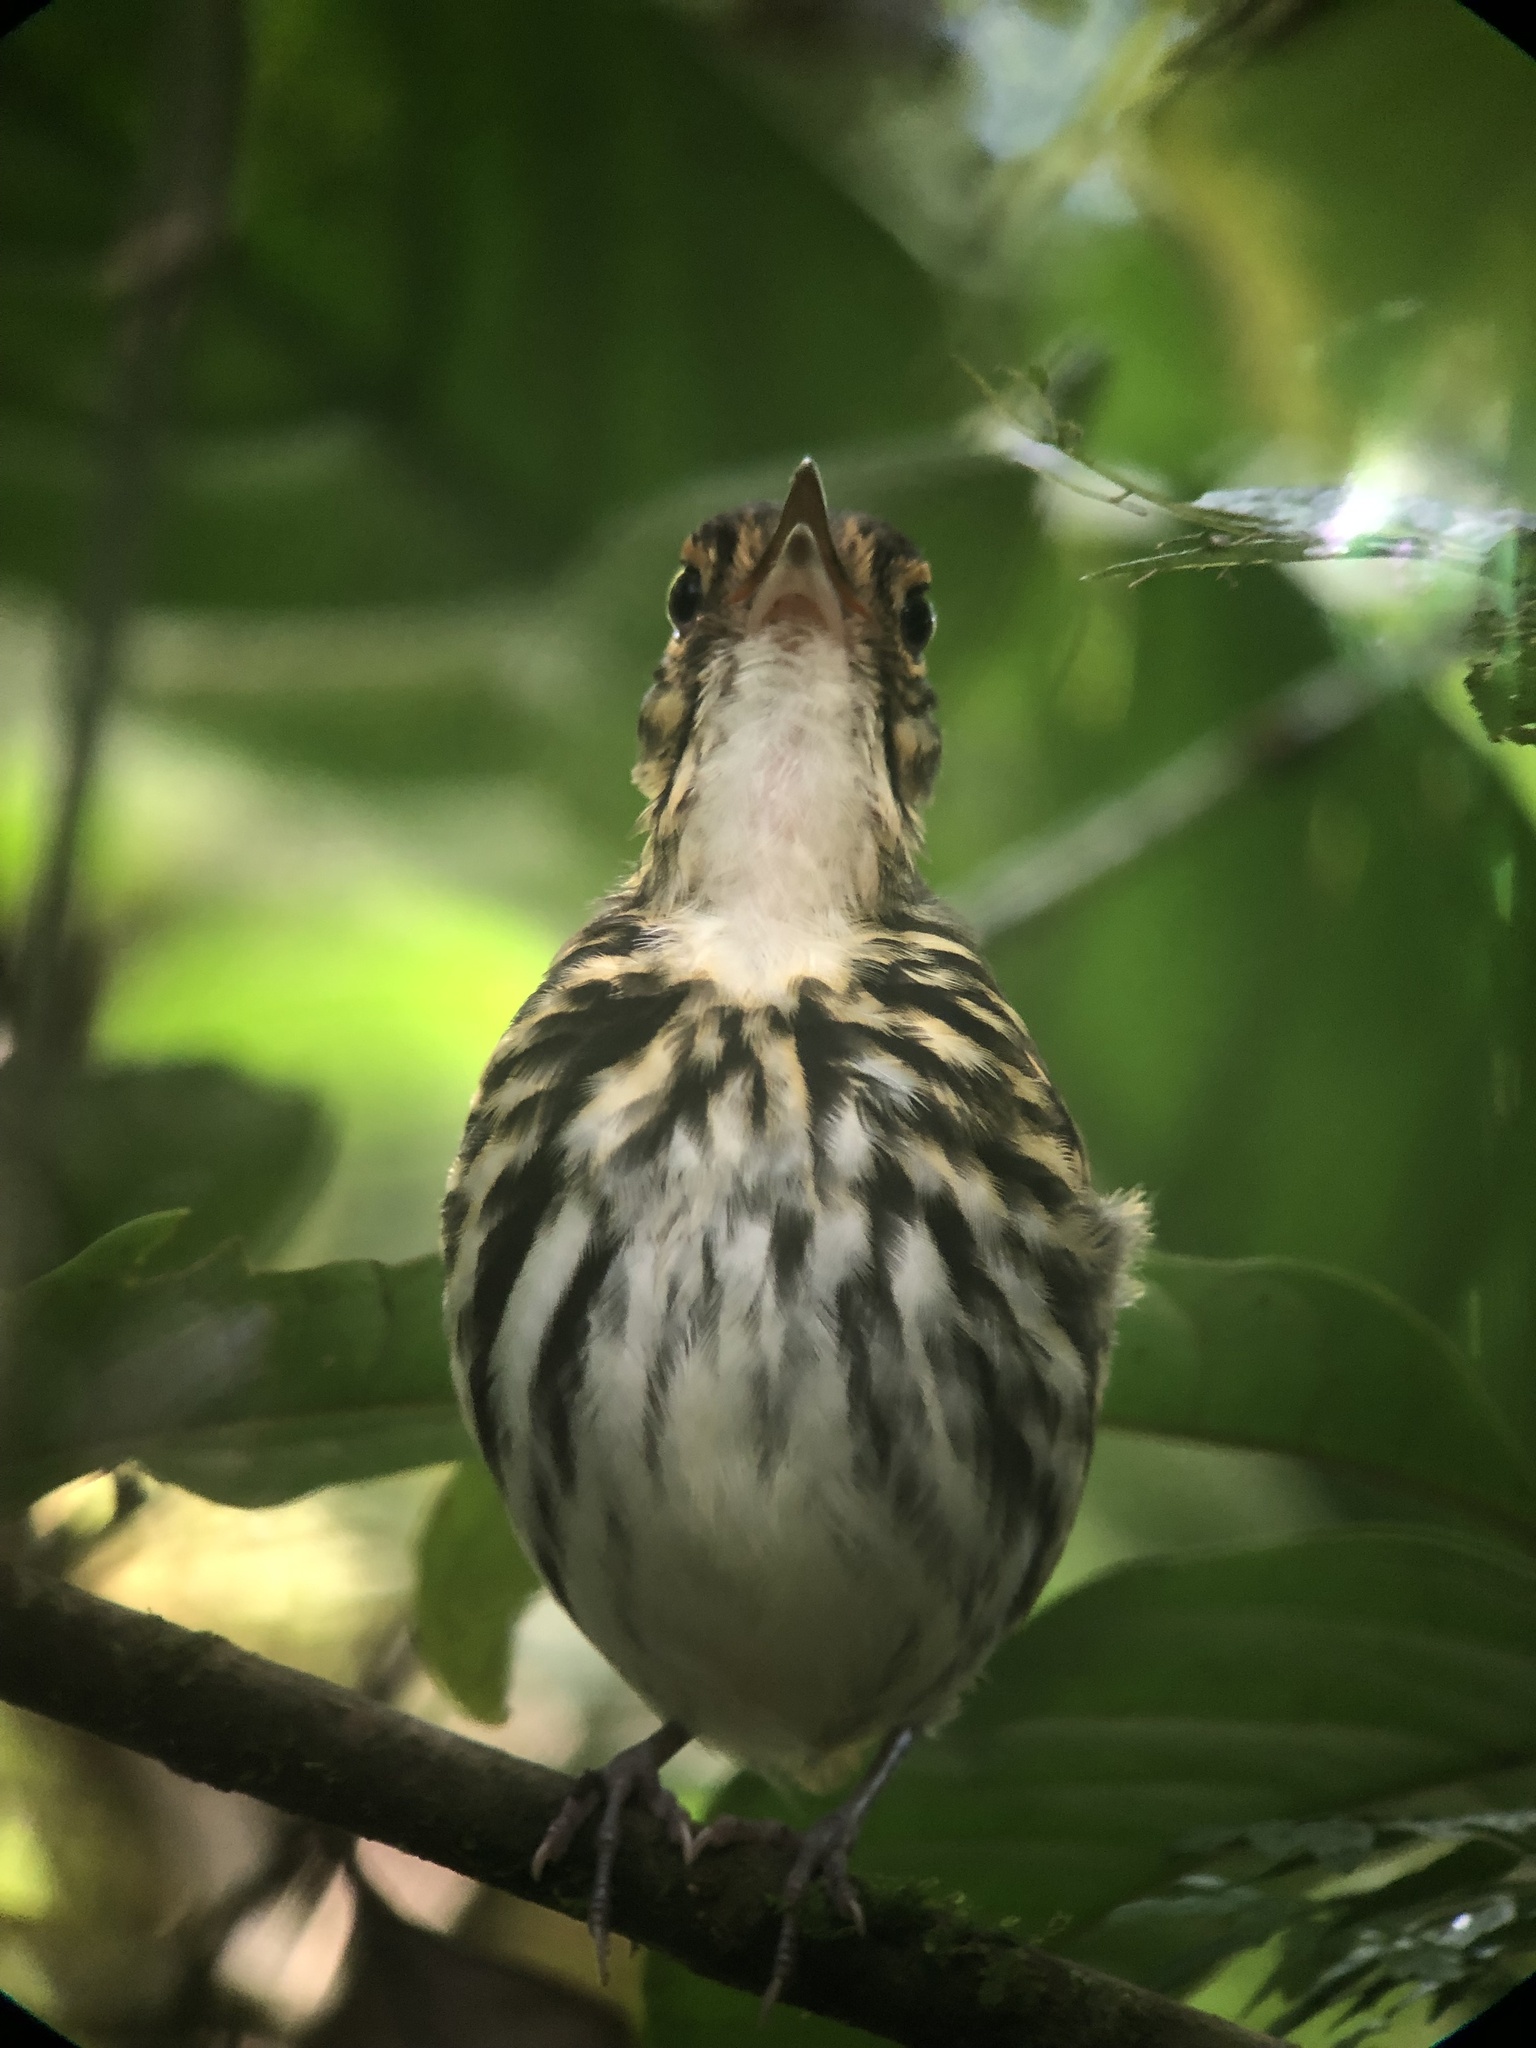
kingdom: Animalia
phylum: Chordata
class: Aves
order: Passeriformes
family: Grallariidae
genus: Hylopezus
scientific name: Hylopezus perspicillatus
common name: Streak-chested antpitta
